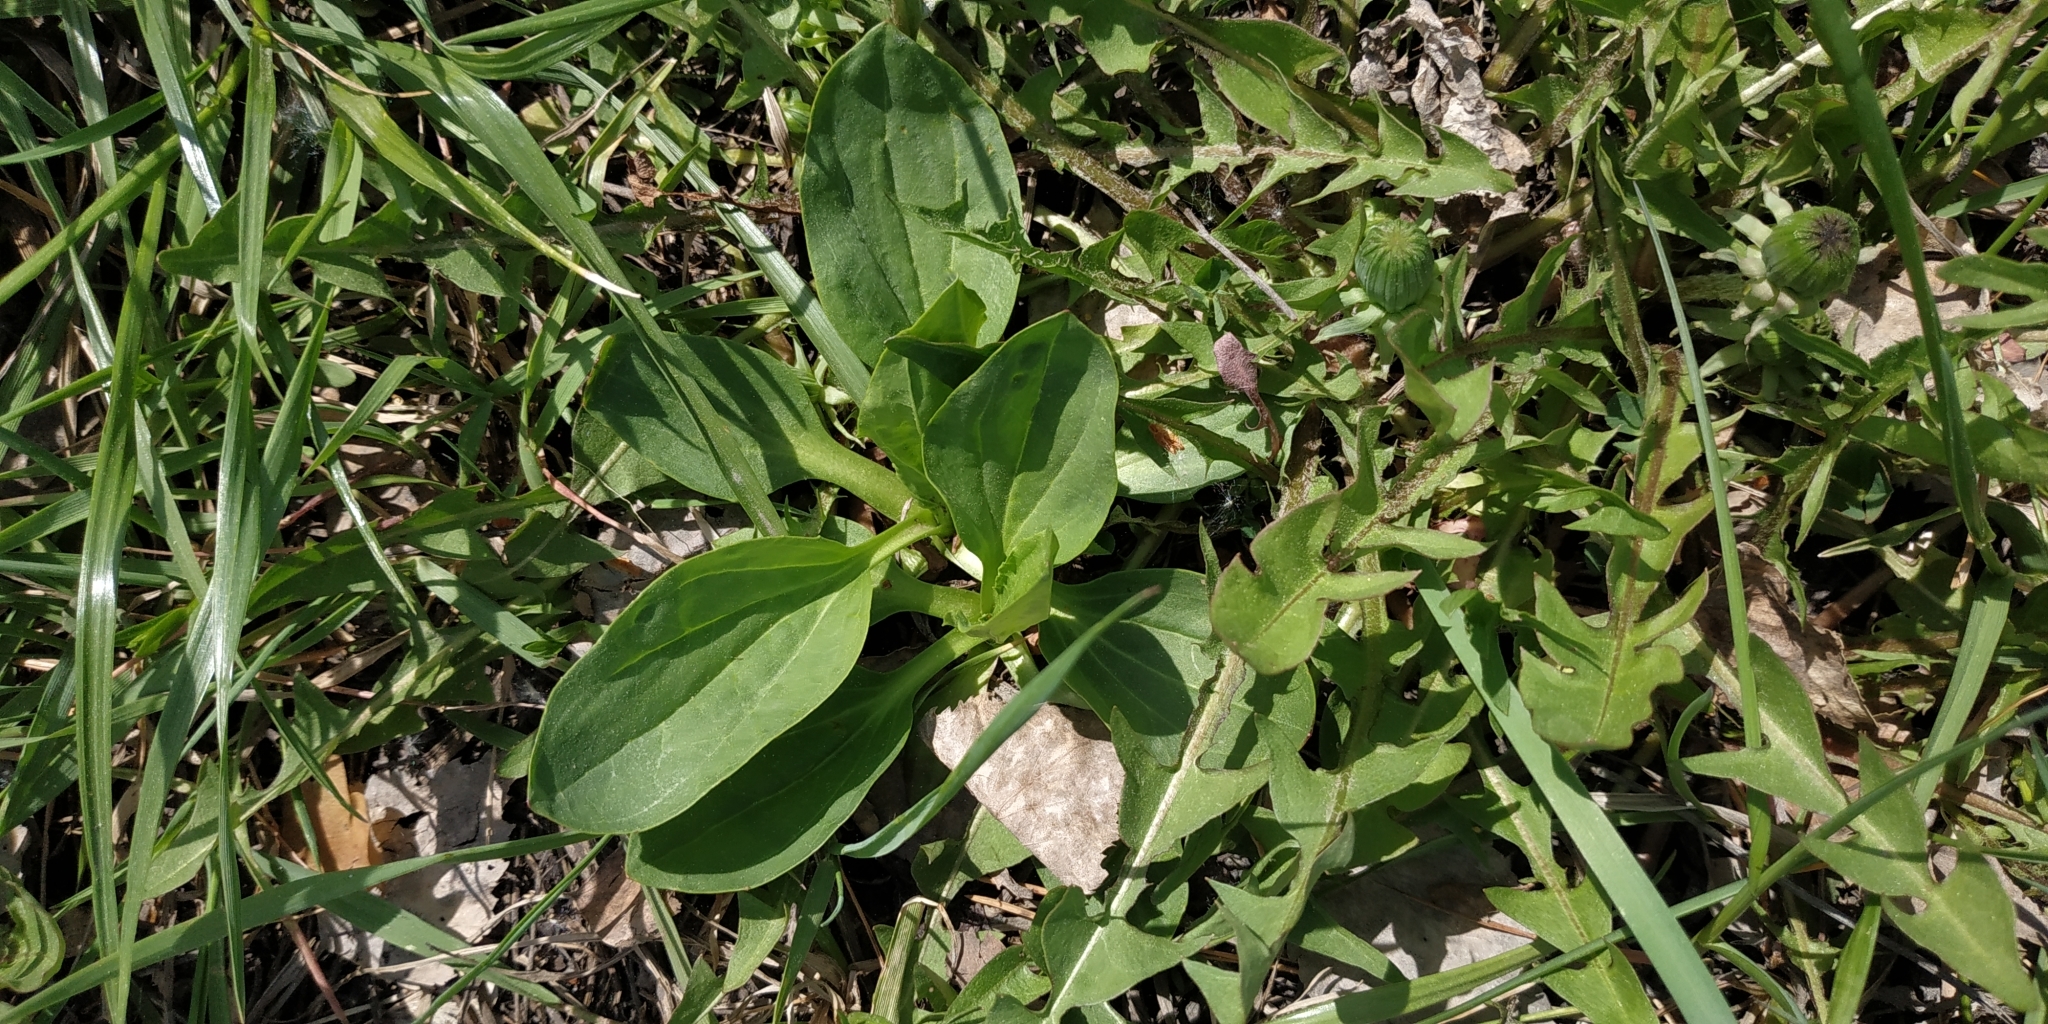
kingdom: Plantae
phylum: Tracheophyta
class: Magnoliopsida
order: Lamiales
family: Plantaginaceae
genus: Plantago
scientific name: Plantago major
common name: Common plantain
